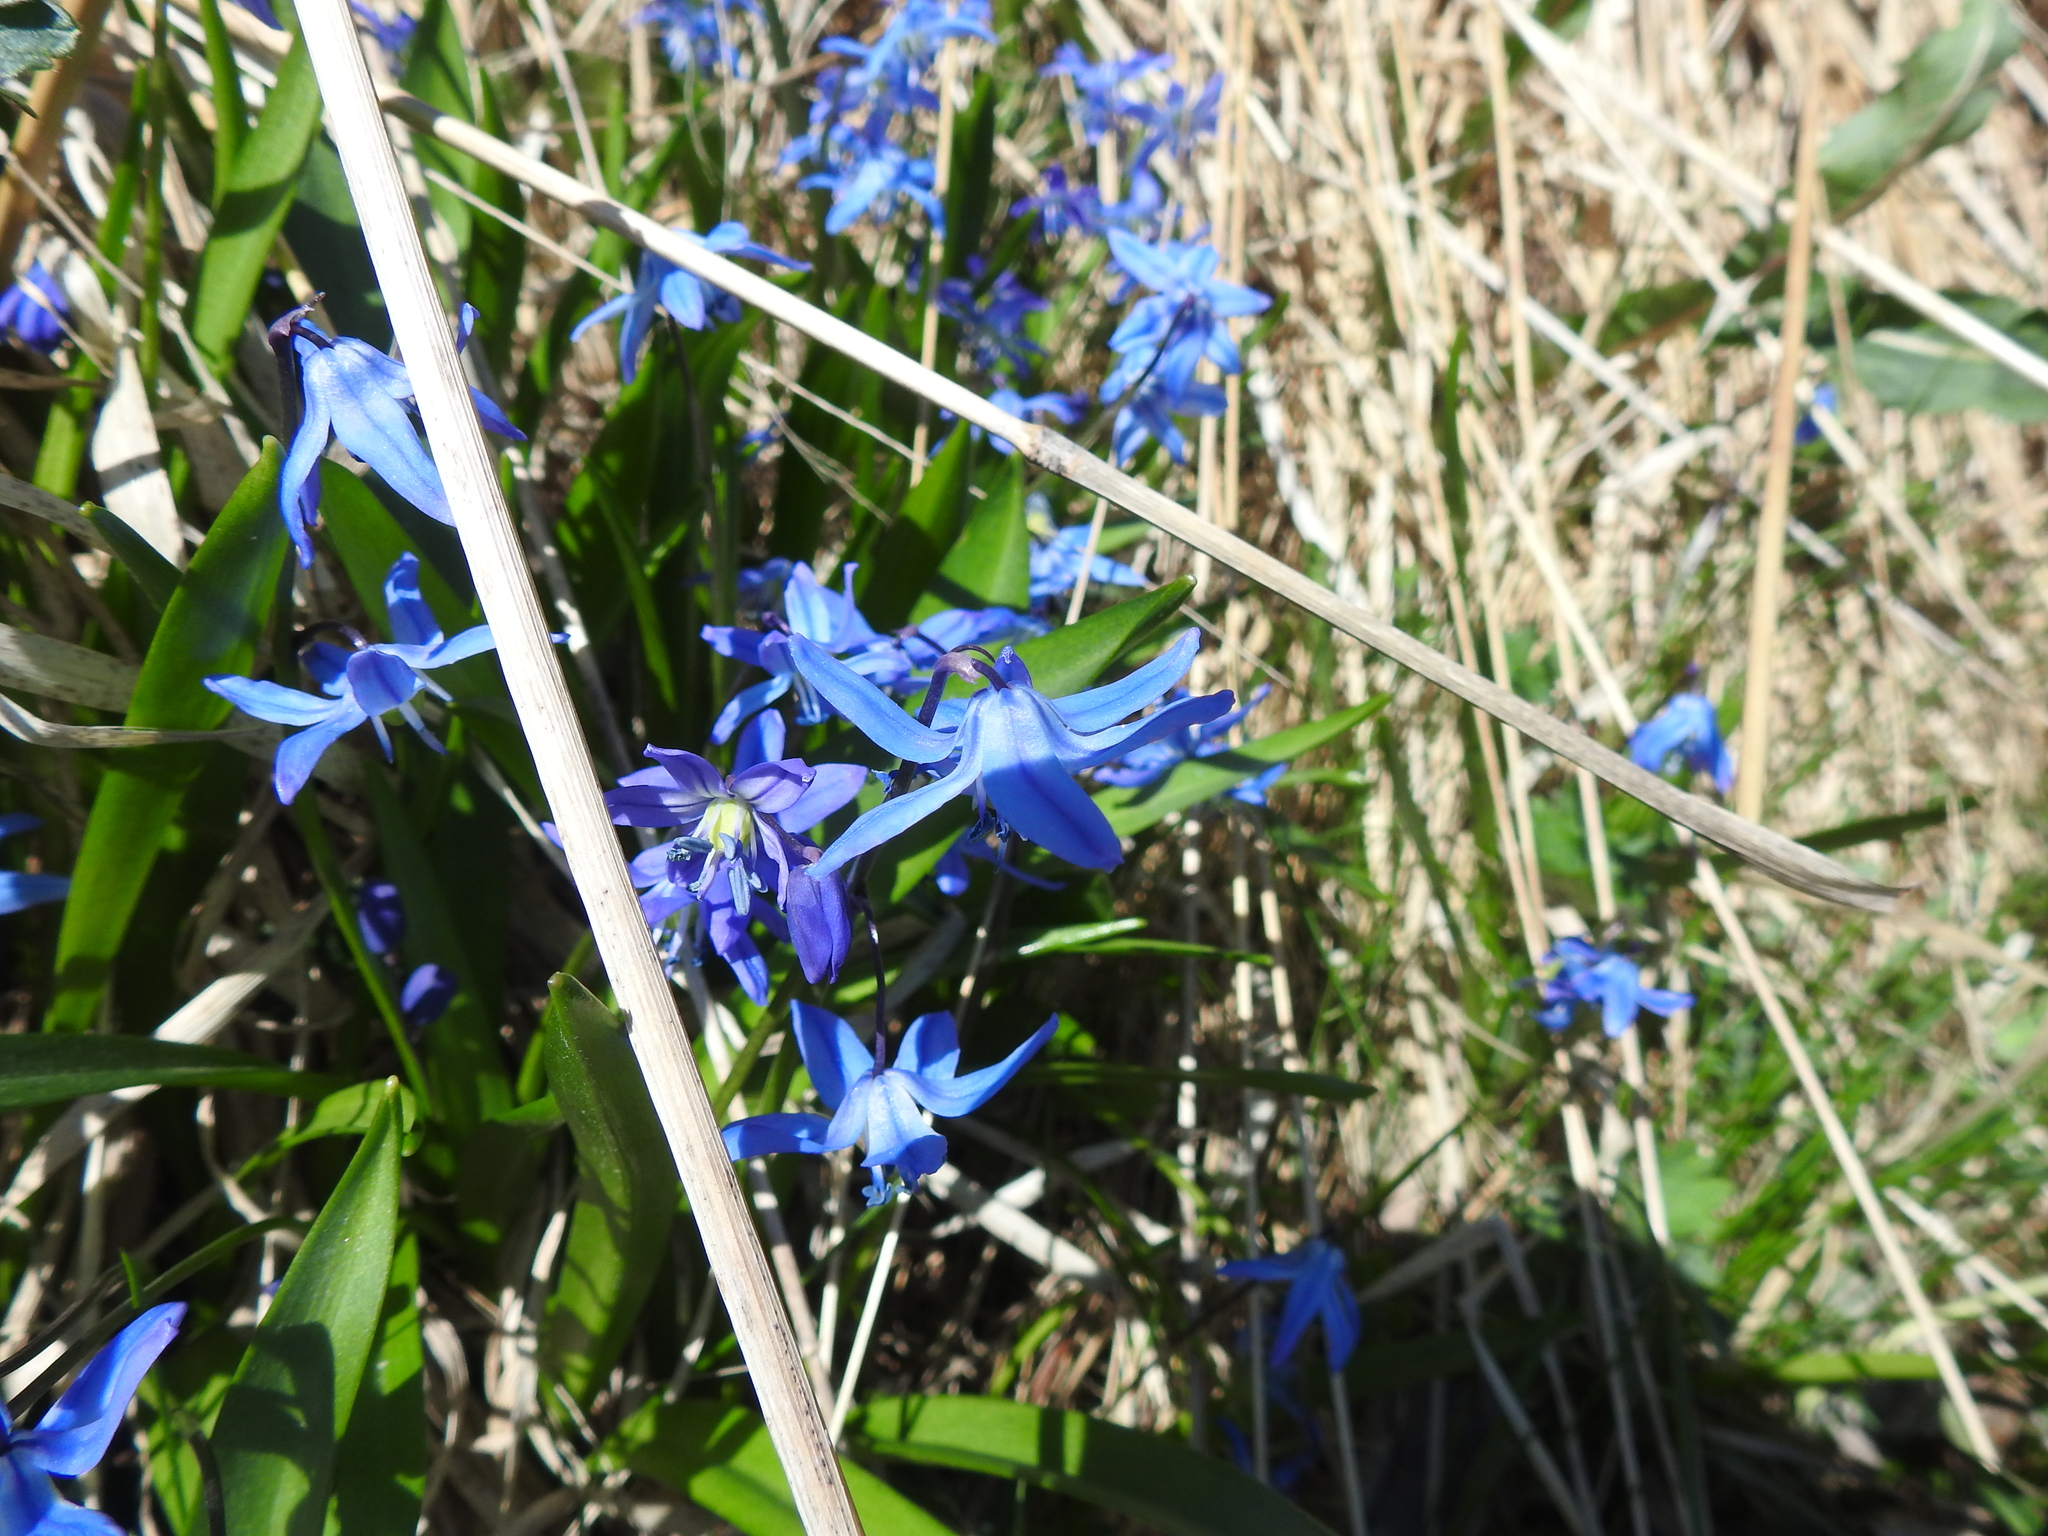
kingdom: Plantae
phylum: Tracheophyta
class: Liliopsida
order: Asparagales
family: Asparagaceae
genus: Scilla
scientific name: Scilla siberica
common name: Siberian squill
